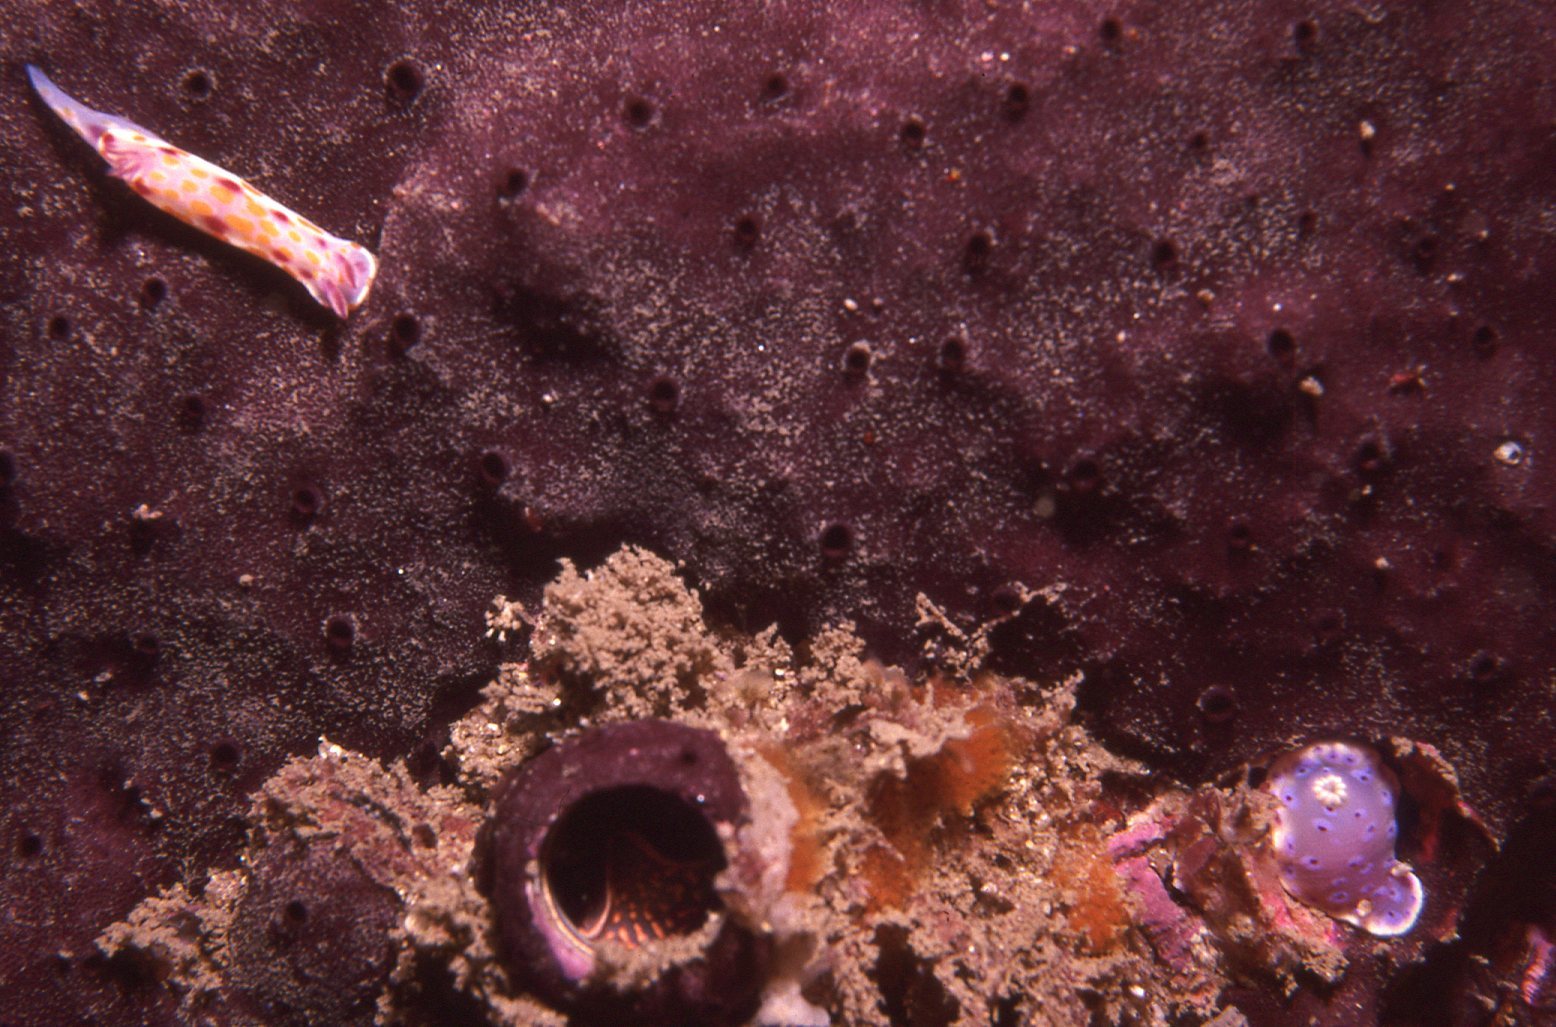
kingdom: Animalia
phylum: Mollusca
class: Gastropoda
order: Littorinimorpha
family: Vermetidae
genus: Thylacodes
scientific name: Thylacodes sipho
